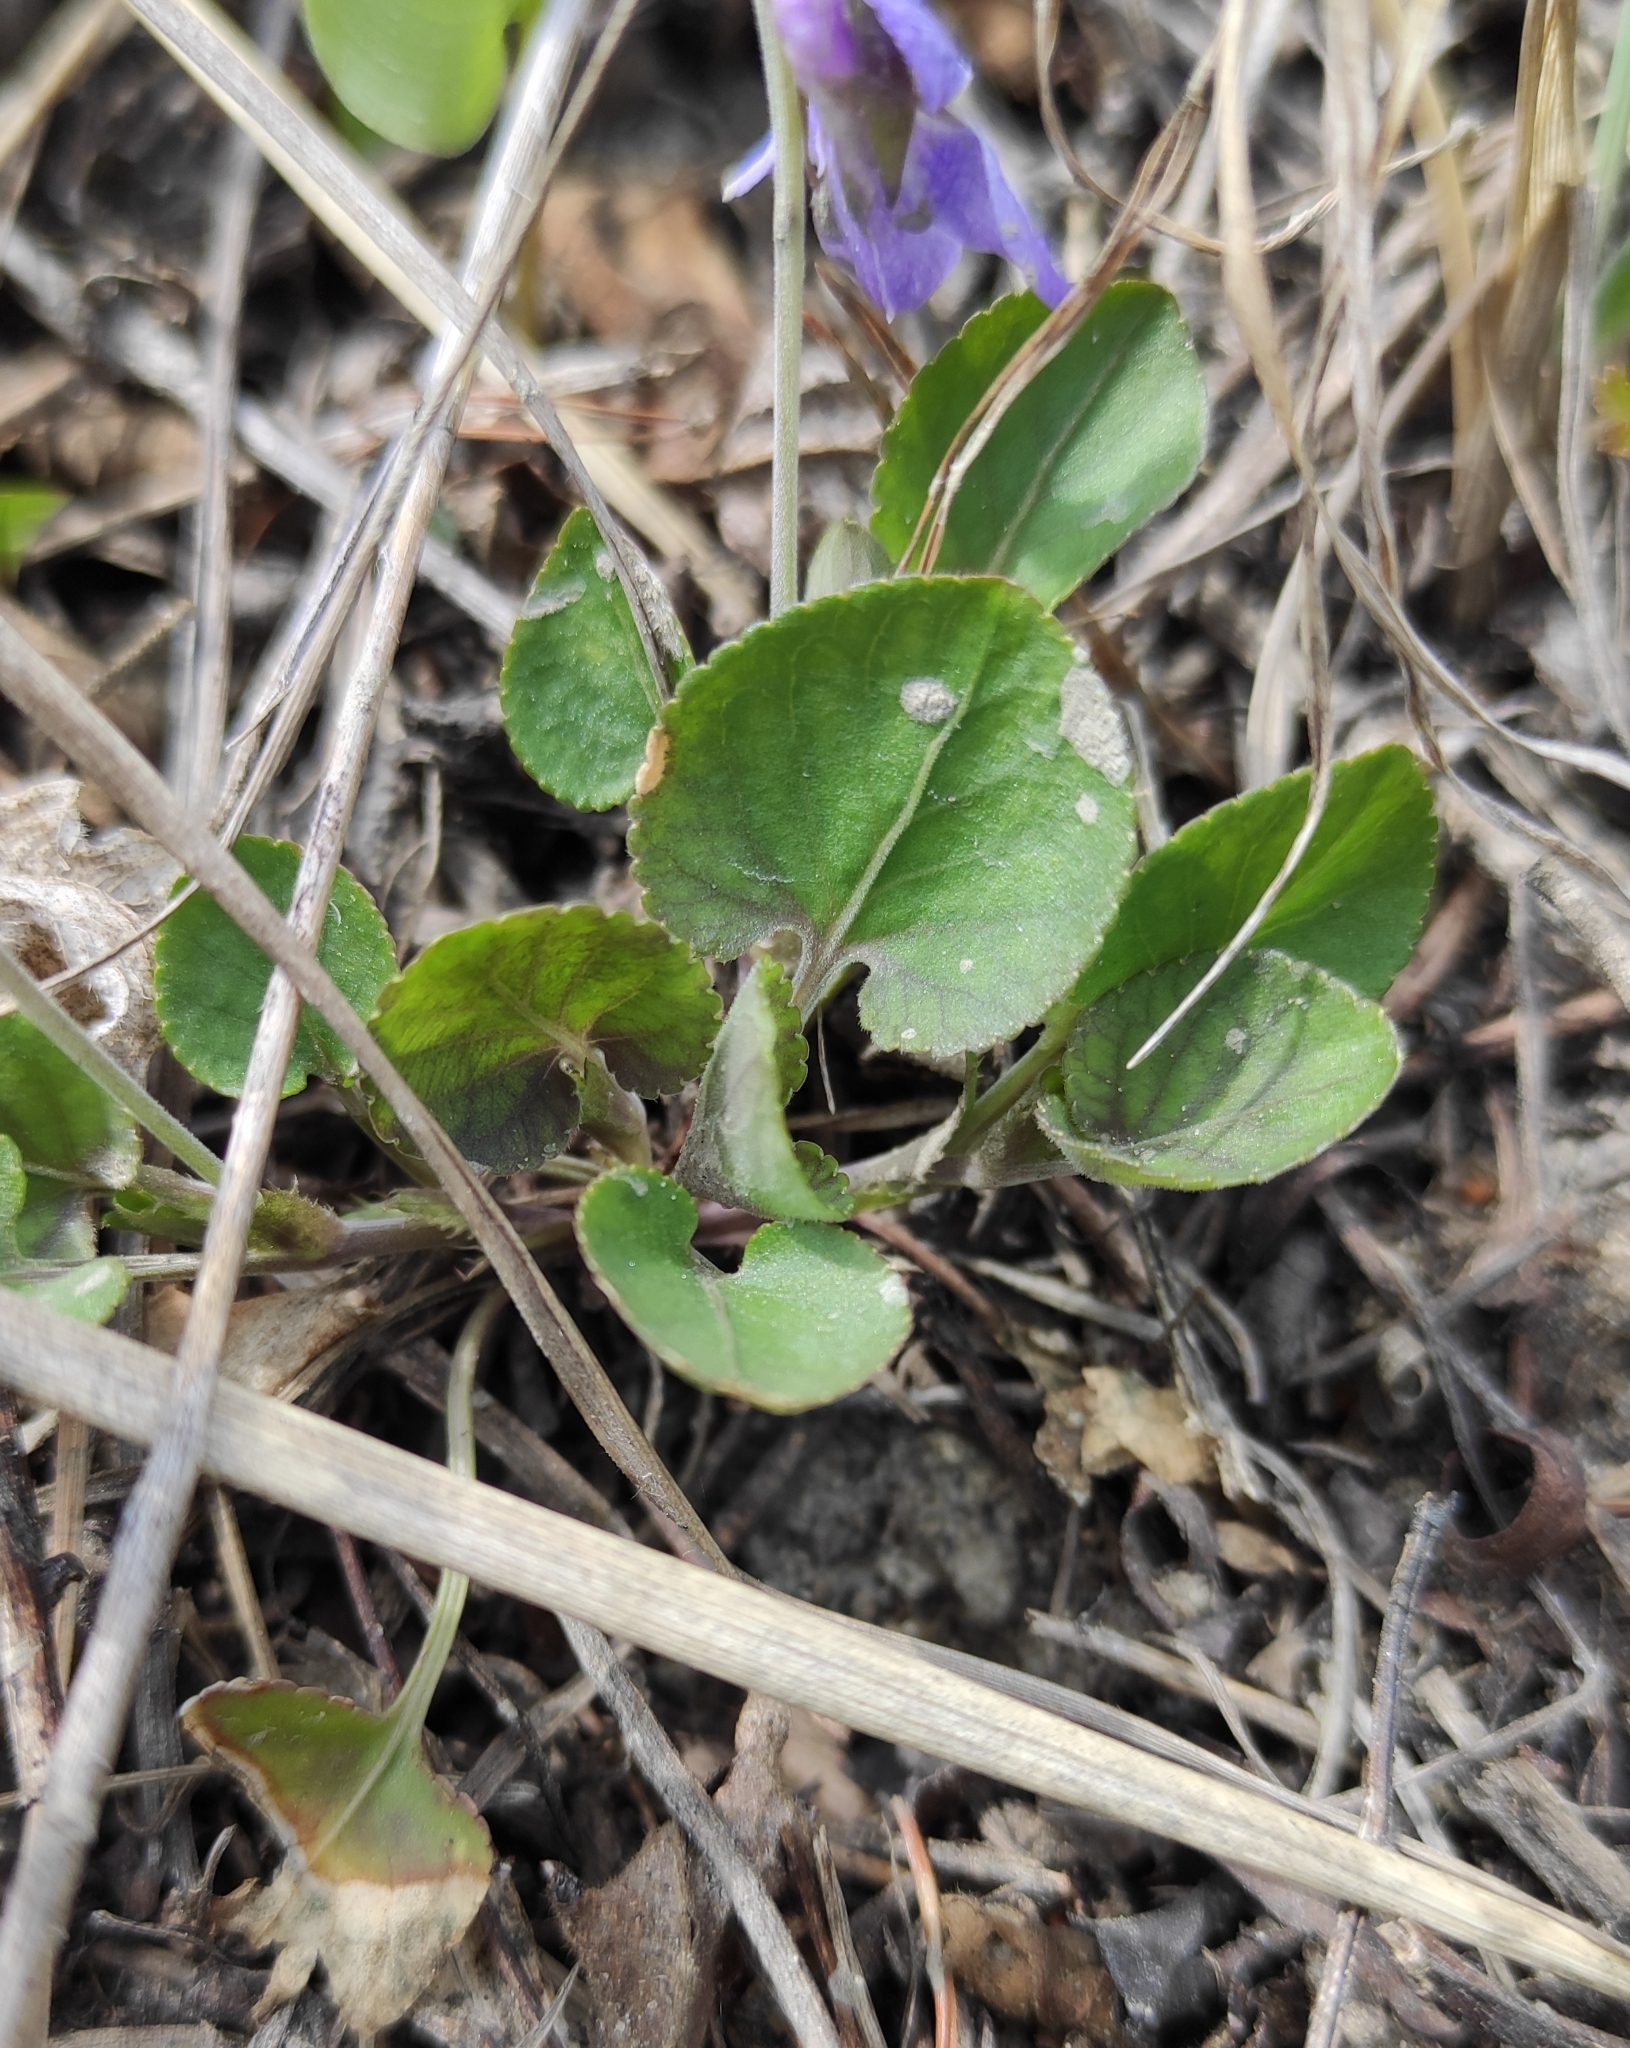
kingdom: Plantae
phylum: Tracheophyta
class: Magnoliopsida
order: Malpighiales
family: Violaceae
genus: Viola
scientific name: Viola rupestris
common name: Teesdale violet
